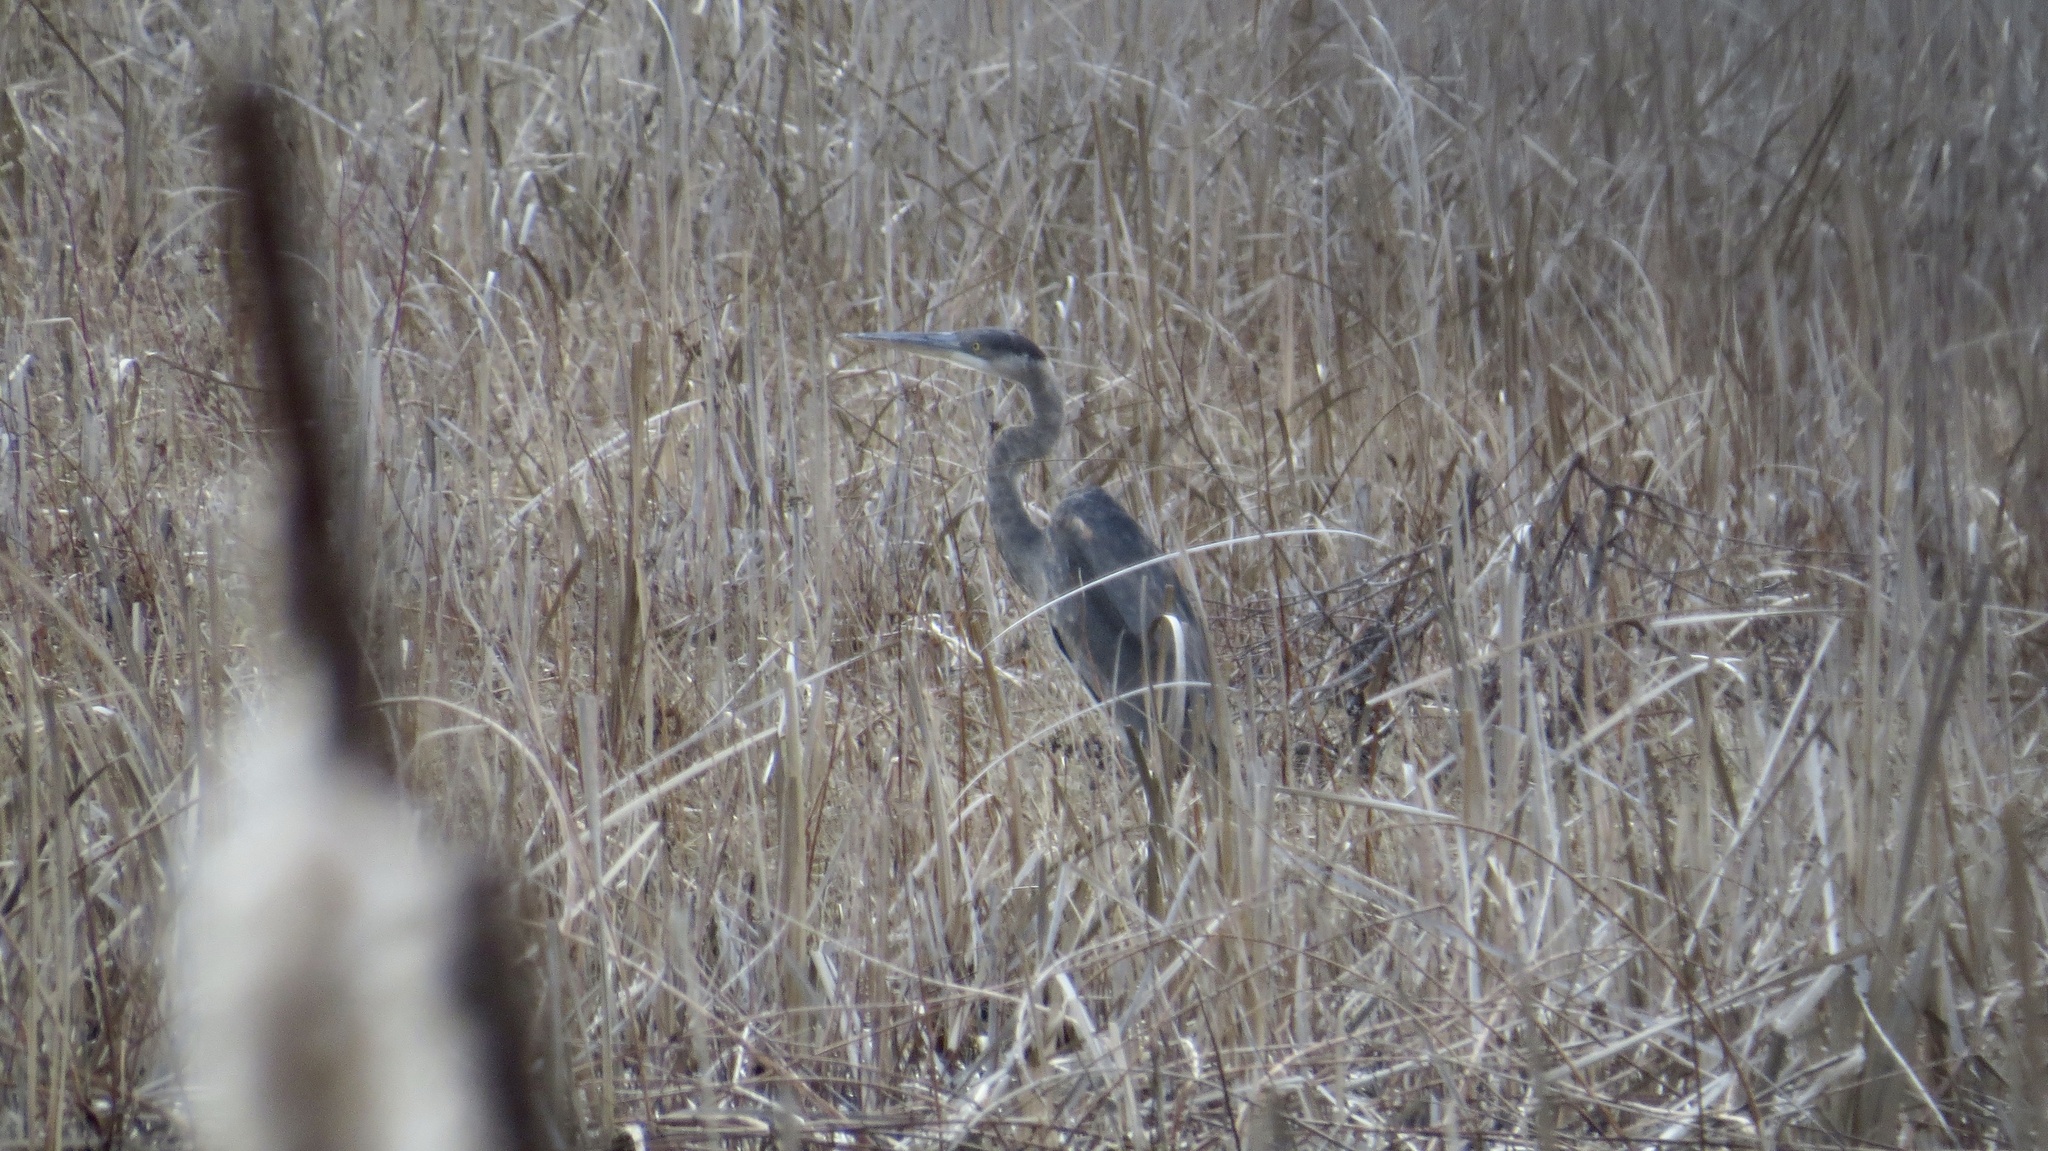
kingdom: Animalia
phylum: Chordata
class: Aves
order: Pelecaniformes
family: Ardeidae
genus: Ardea
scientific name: Ardea herodias
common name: Great blue heron
